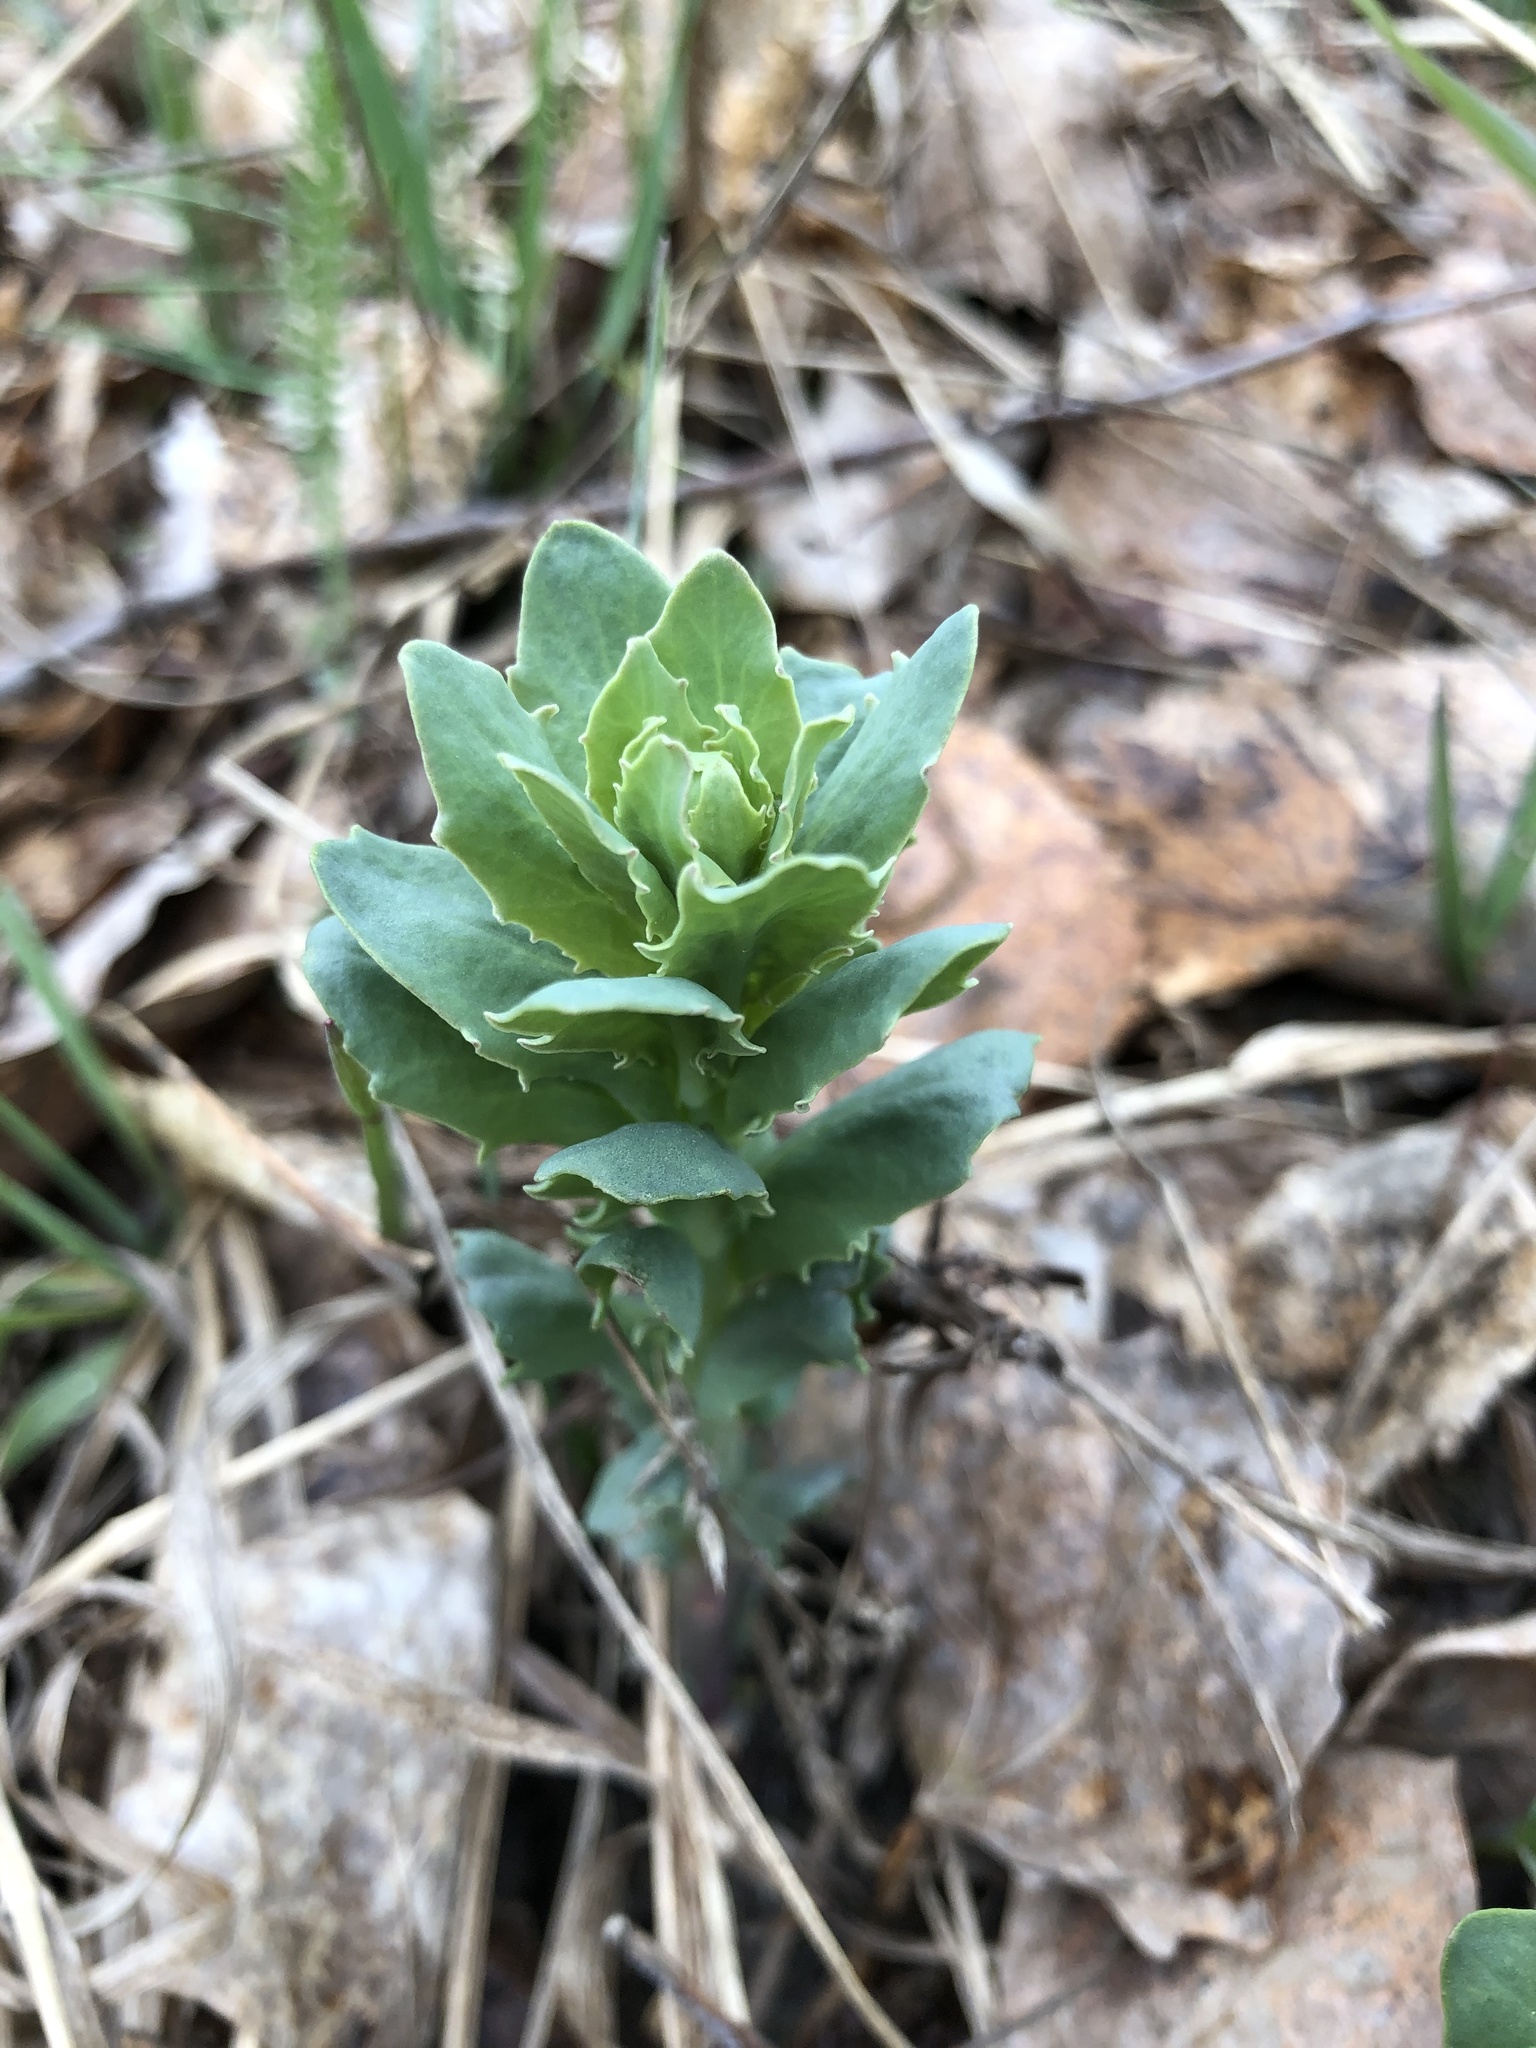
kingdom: Plantae
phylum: Tracheophyta
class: Magnoliopsida
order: Saxifragales
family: Crassulaceae
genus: Hylotelephium
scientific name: Hylotelephium telephium
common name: Live-forever
